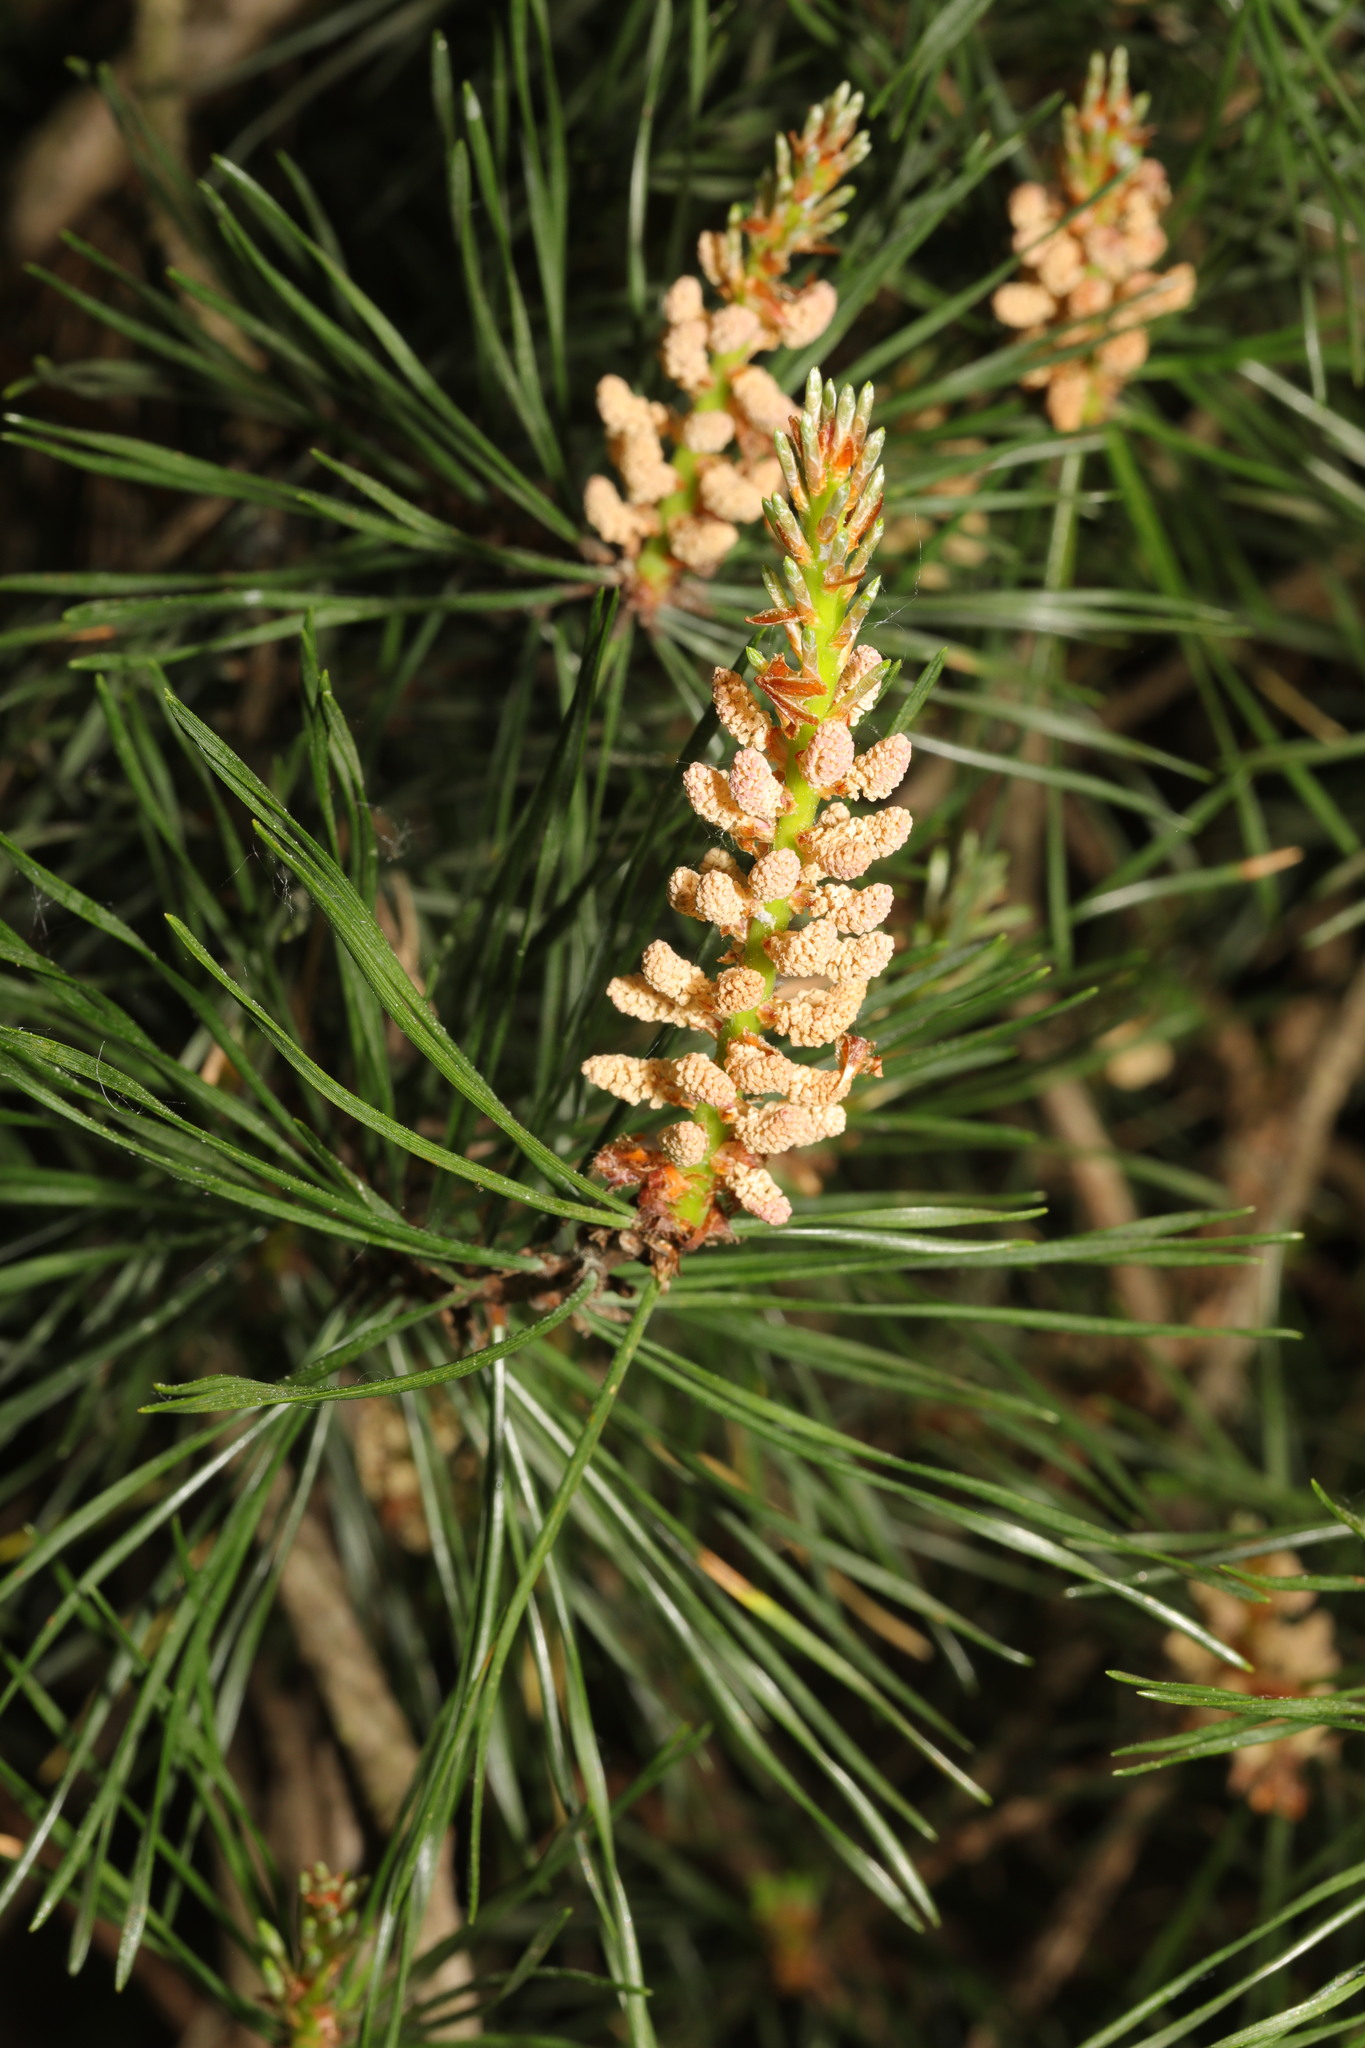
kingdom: Plantae
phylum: Tracheophyta
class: Pinopsida
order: Pinales
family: Pinaceae
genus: Pinus
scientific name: Pinus sylvestris
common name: Scots pine
